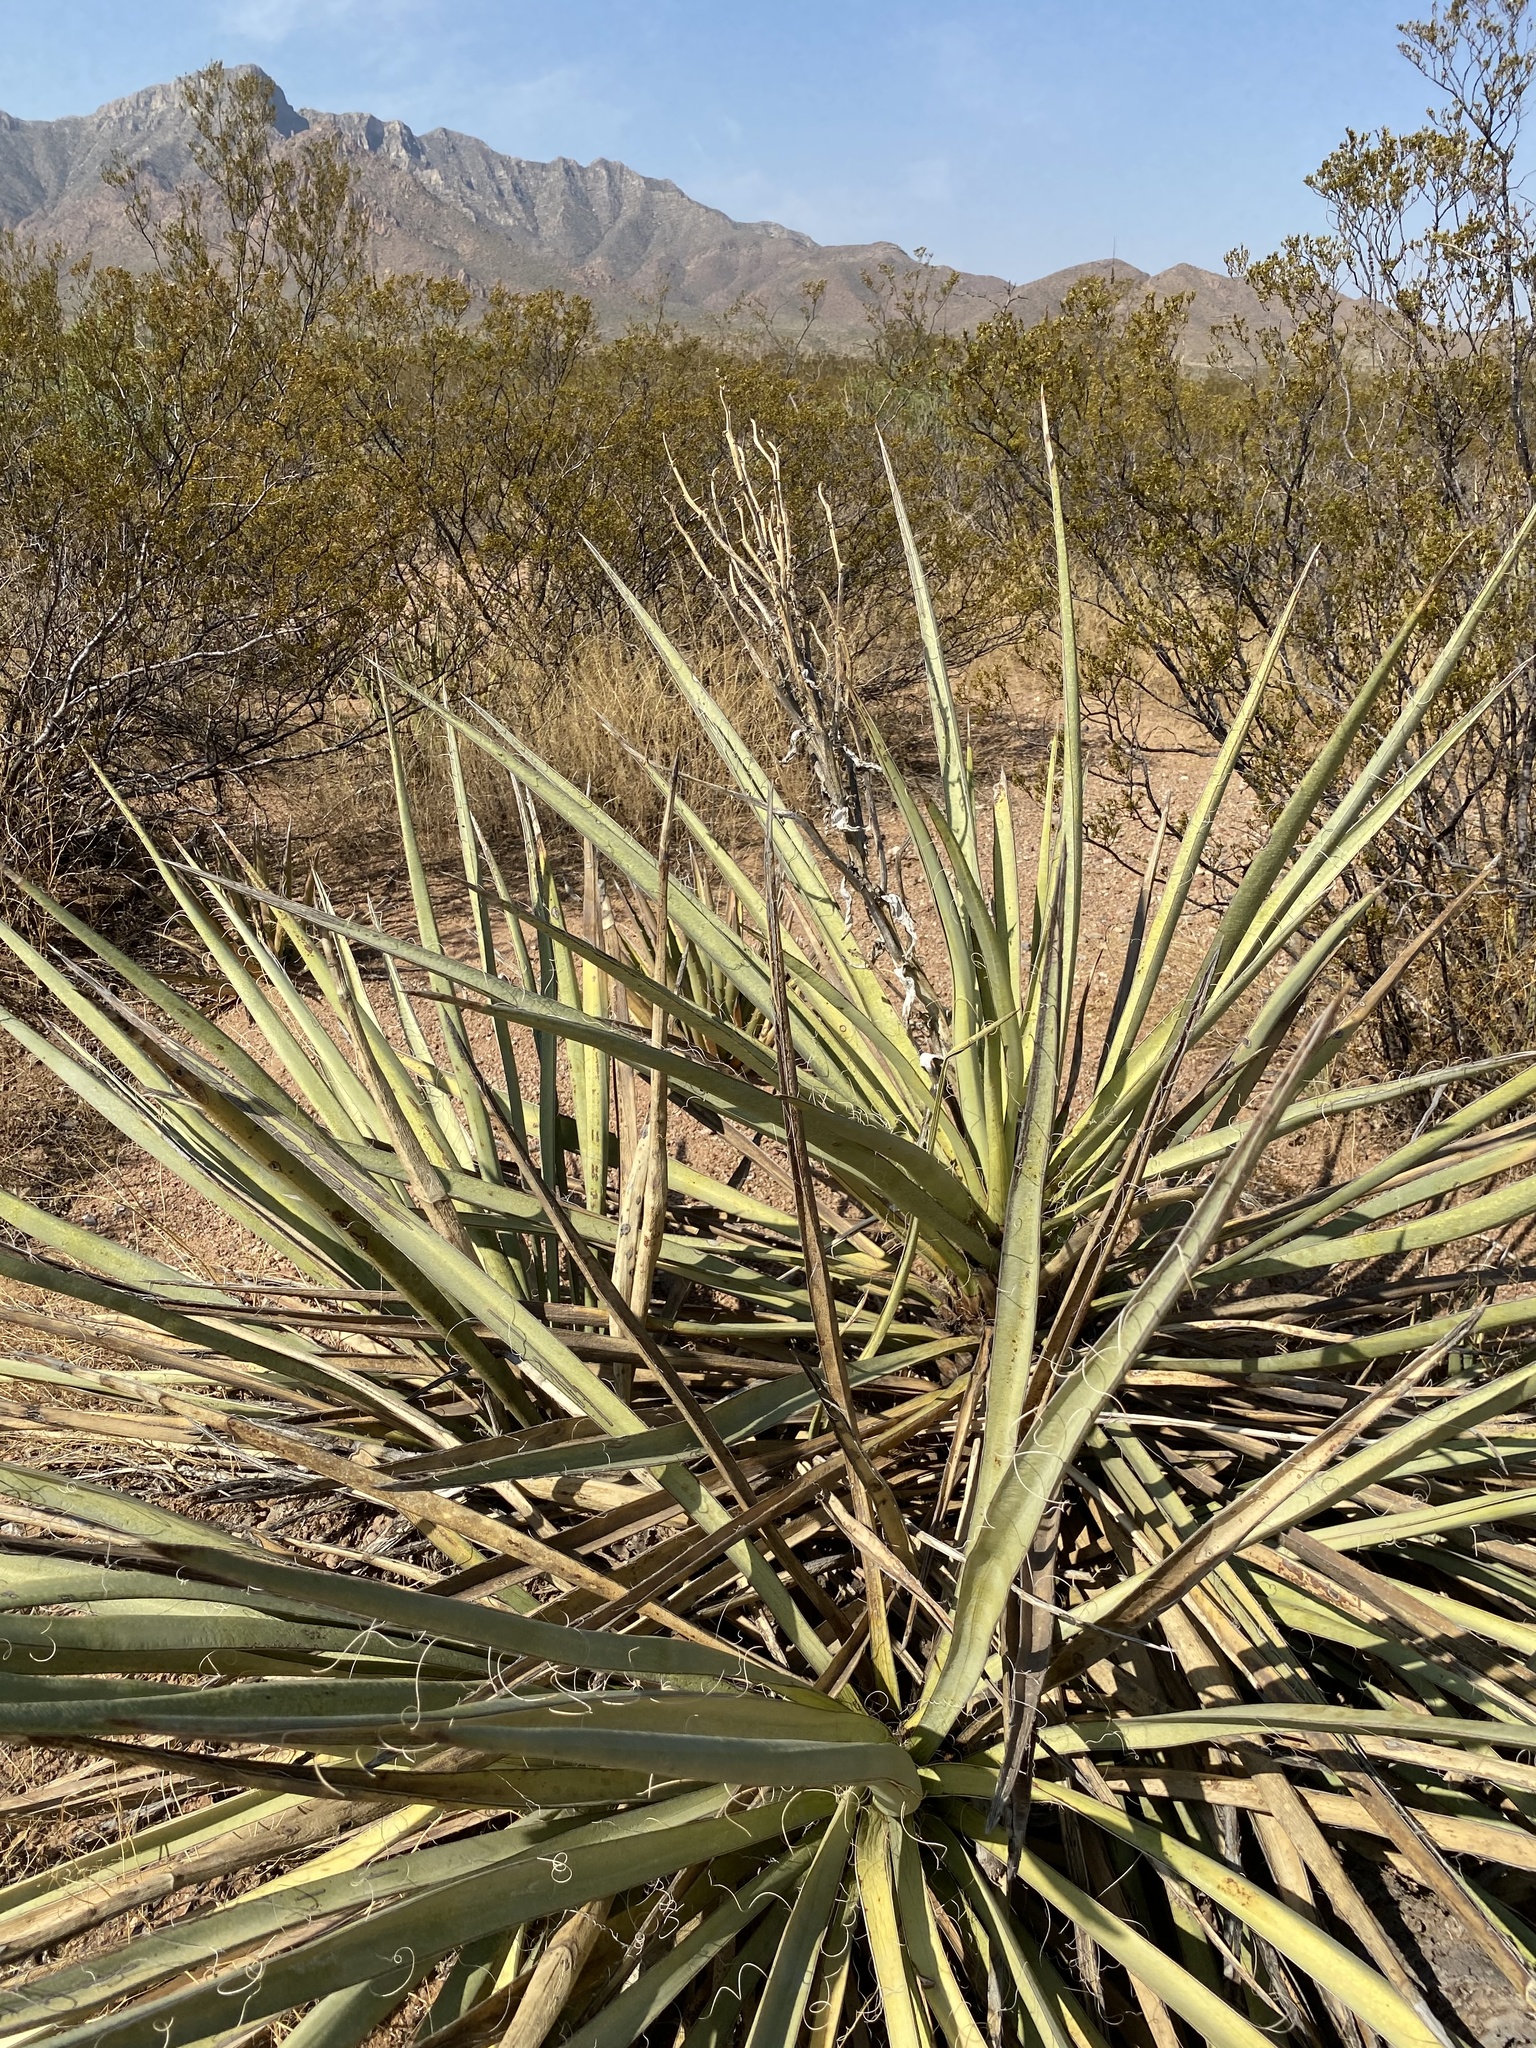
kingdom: Plantae
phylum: Tracheophyta
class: Liliopsida
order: Asparagales
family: Asparagaceae
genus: Yucca
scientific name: Yucca baccata
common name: Banana yucca
